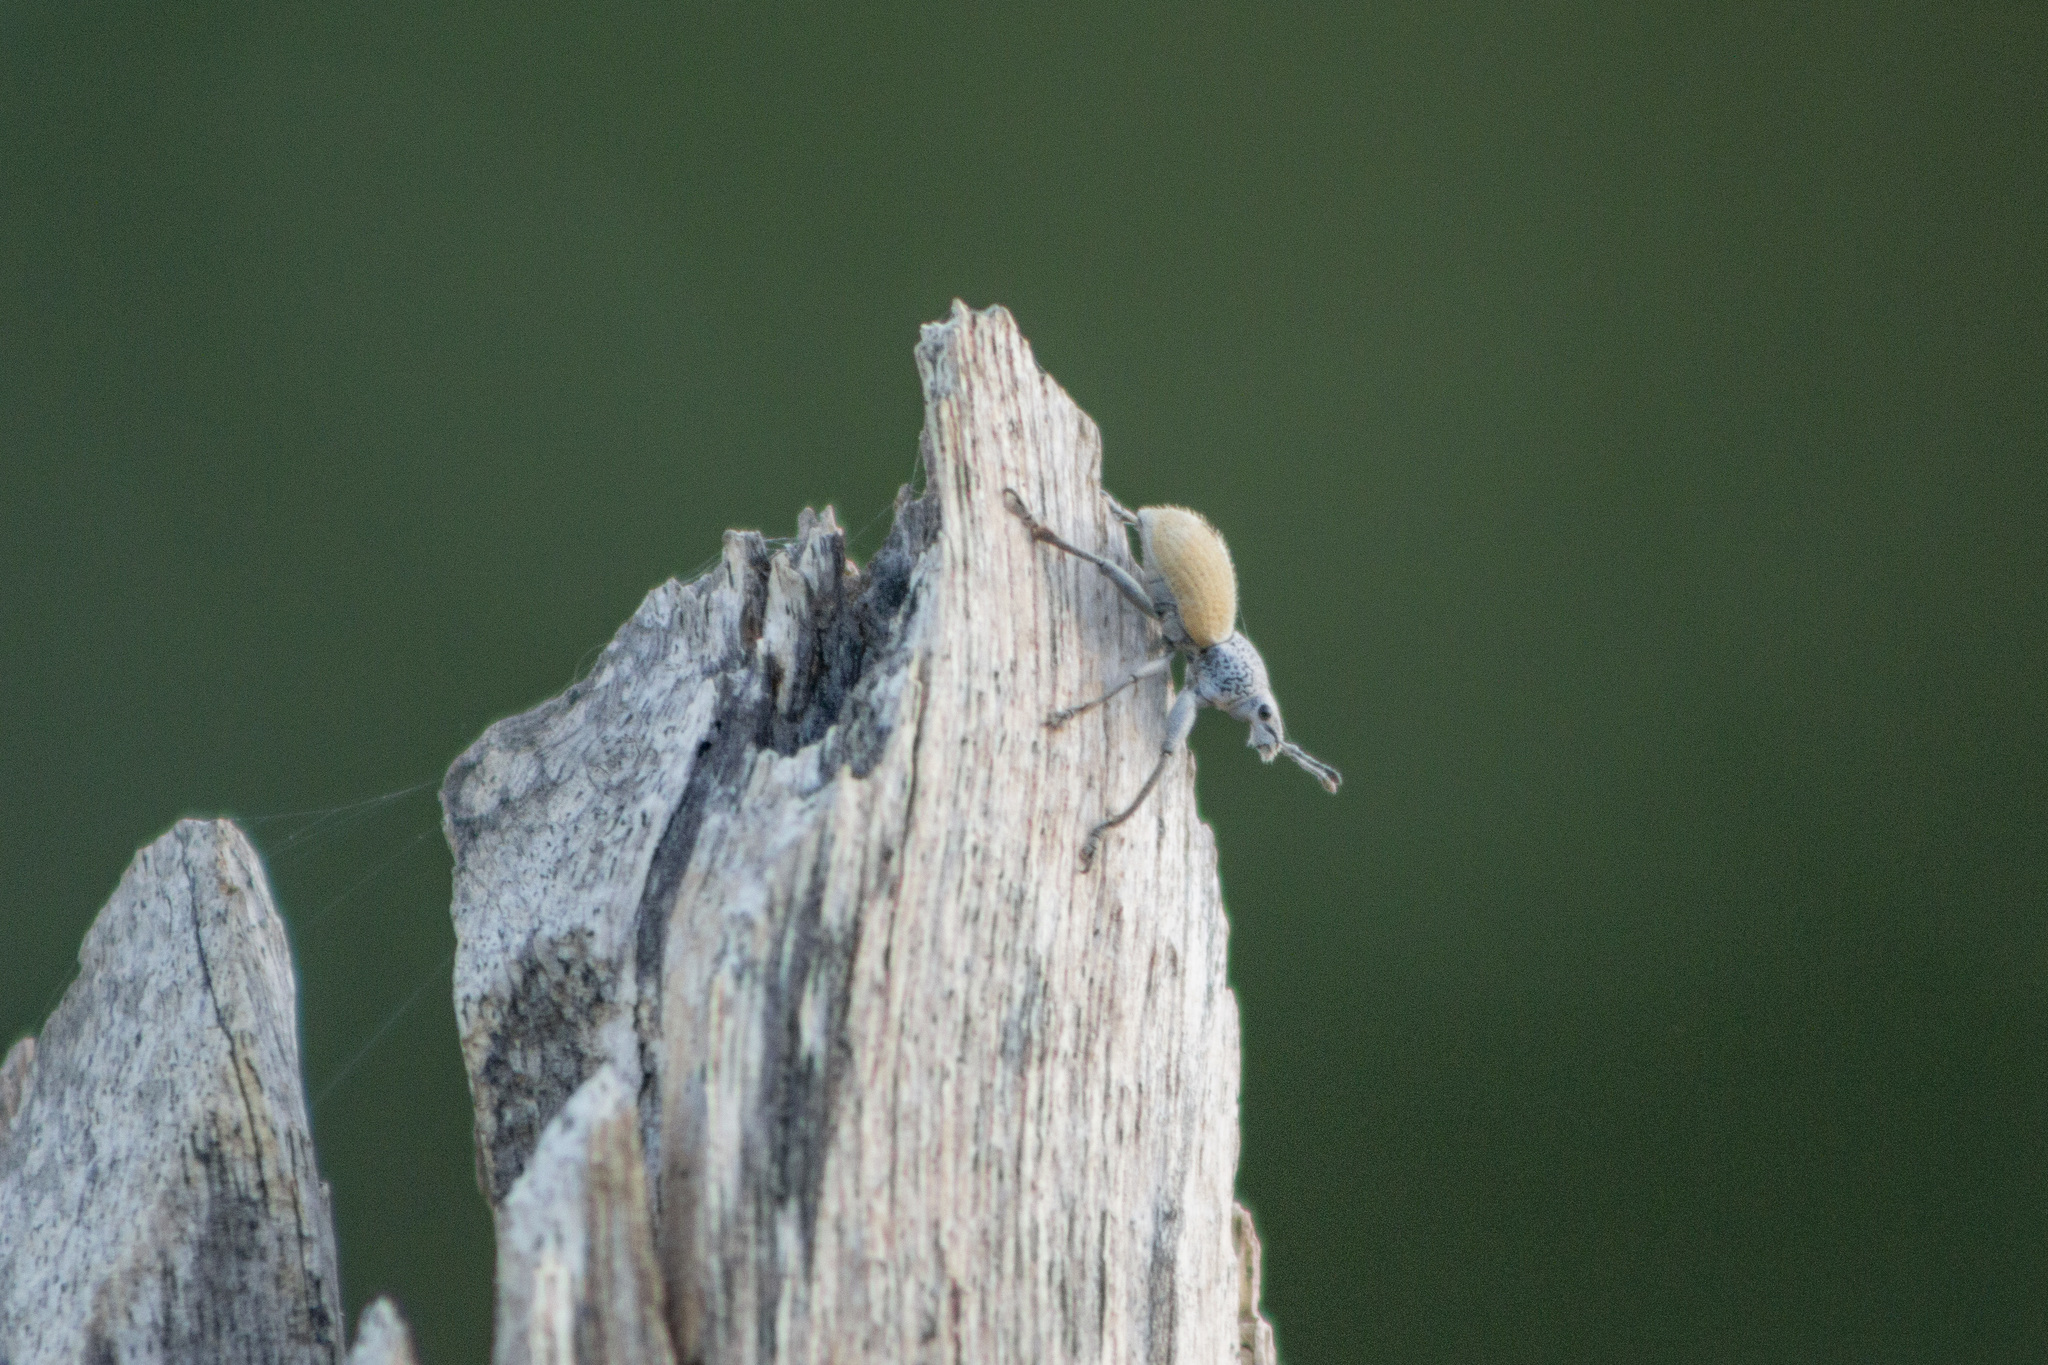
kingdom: Animalia
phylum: Arthropoda
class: Insecta
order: Coleoptera
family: Curculionidae
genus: Naupactus
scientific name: Naupactus glaucus
